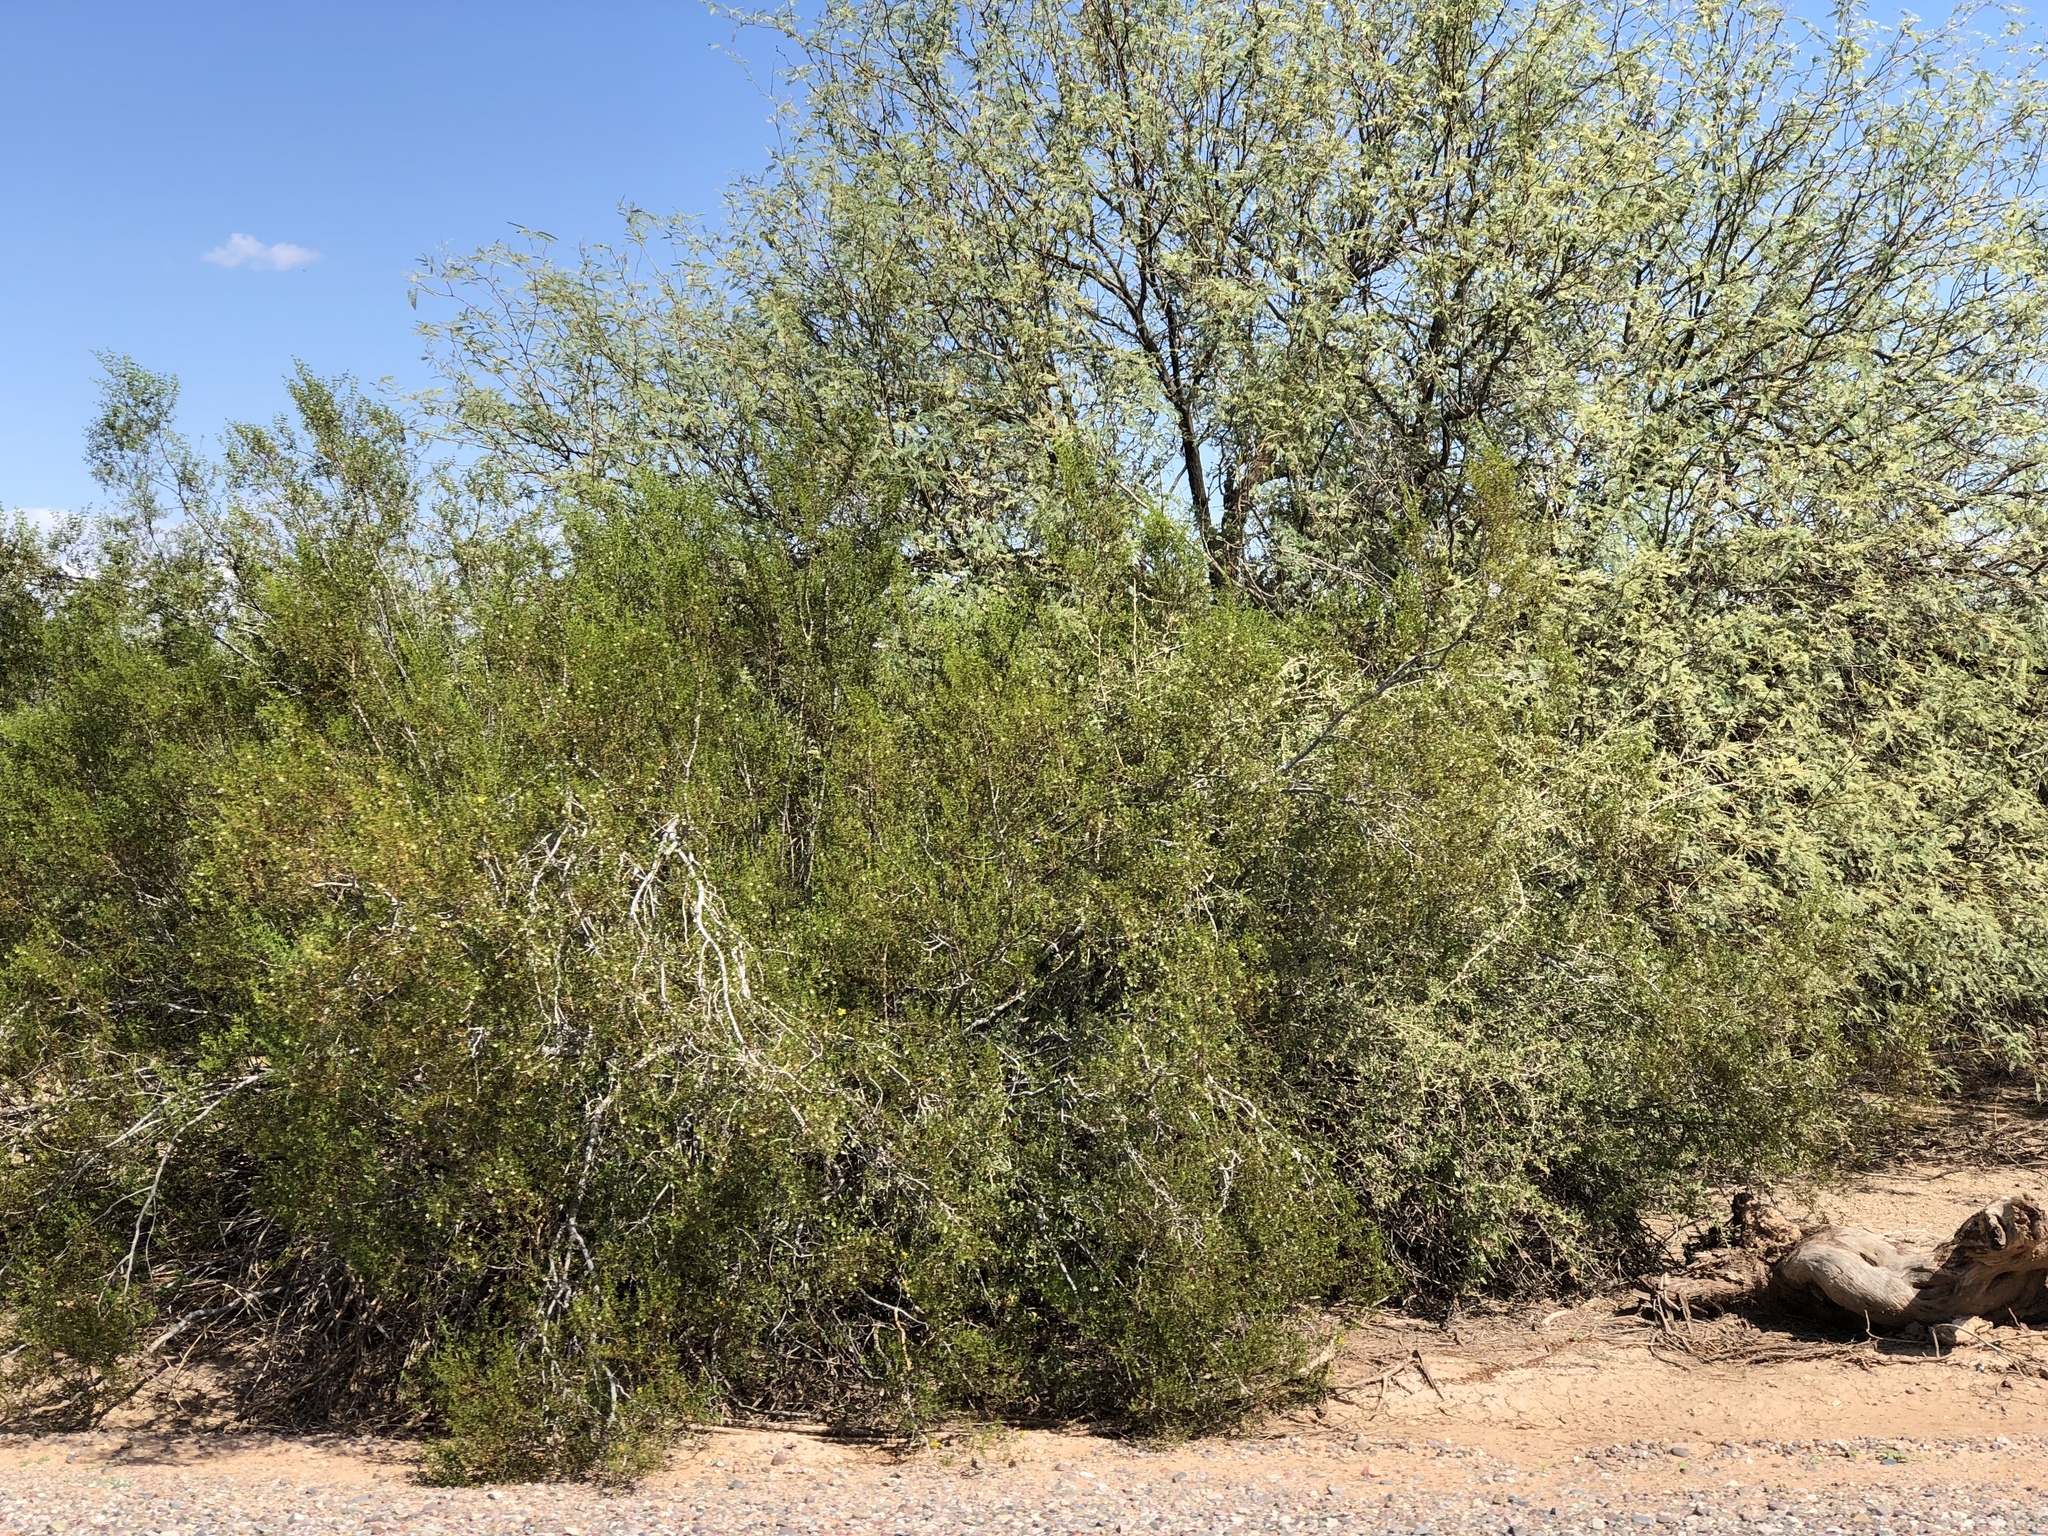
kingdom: Plantae
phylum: Tracheophyta
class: Magnoliopsida
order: Zygophyllales
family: Zygophyllaceae
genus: Larrea
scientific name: Larrea tridentata
